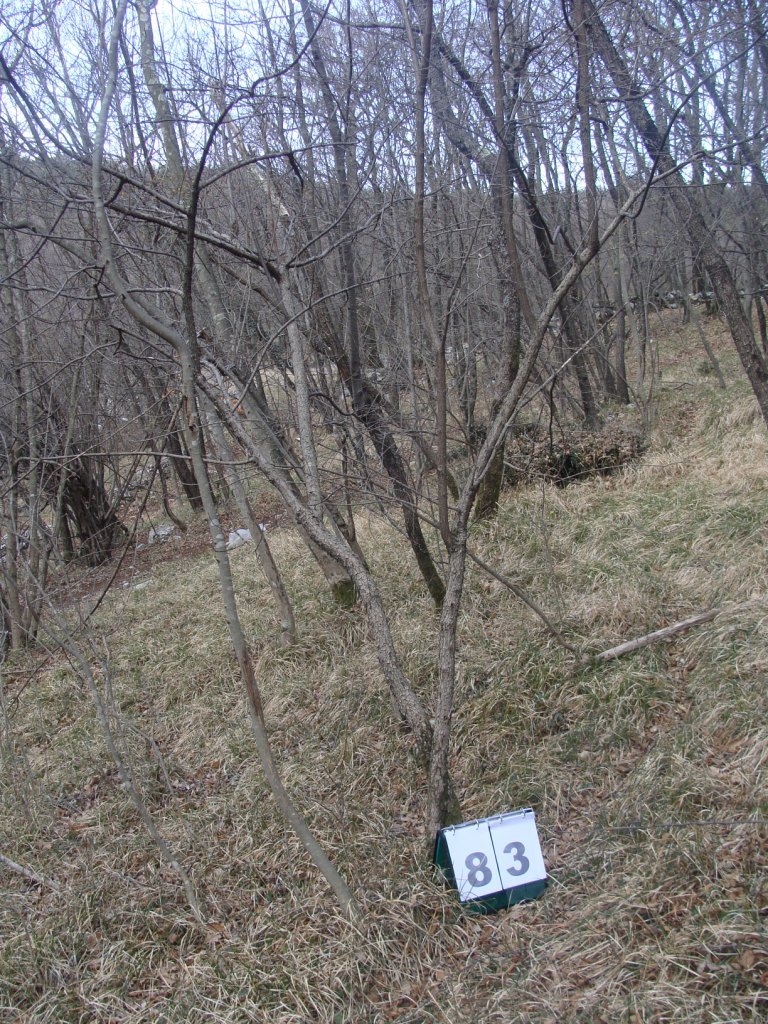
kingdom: Plantae
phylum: Tracheophyta
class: Magnoliopsida
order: Cornales
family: Cornaceae
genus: Cornus
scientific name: Cornus mas
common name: Cornelian-cherry
